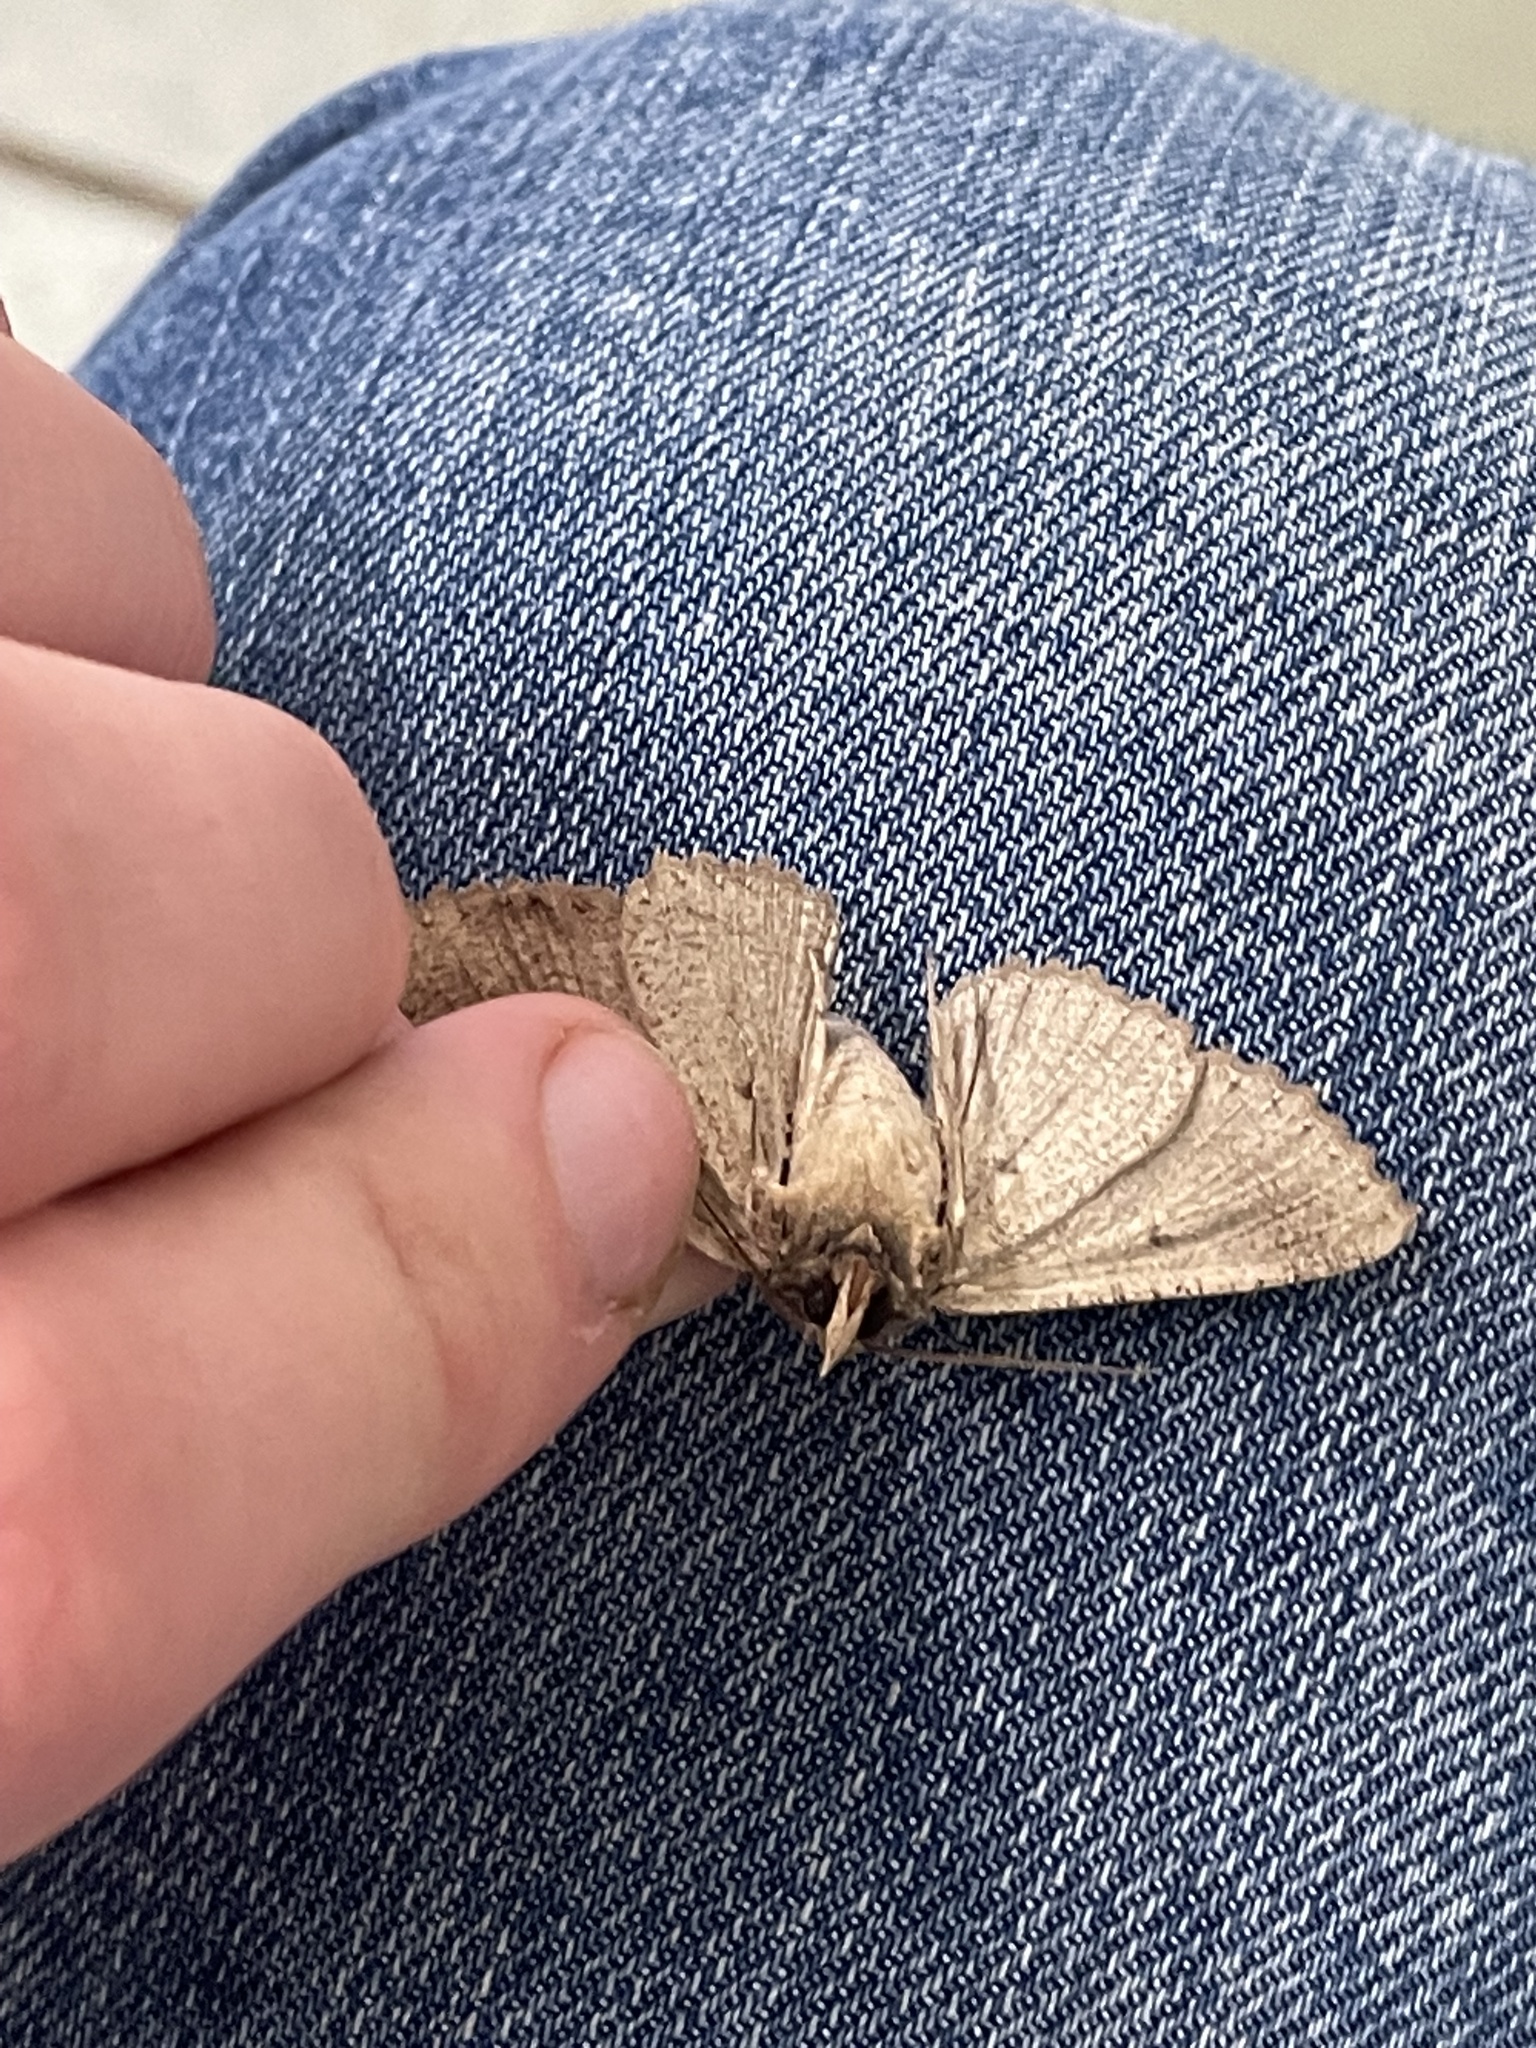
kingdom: Animalia
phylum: Arthropoda
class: Insecta
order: Lepidoptera
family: Erebidae
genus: Zale
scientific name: Zale lunata
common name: Lunate zale moth
